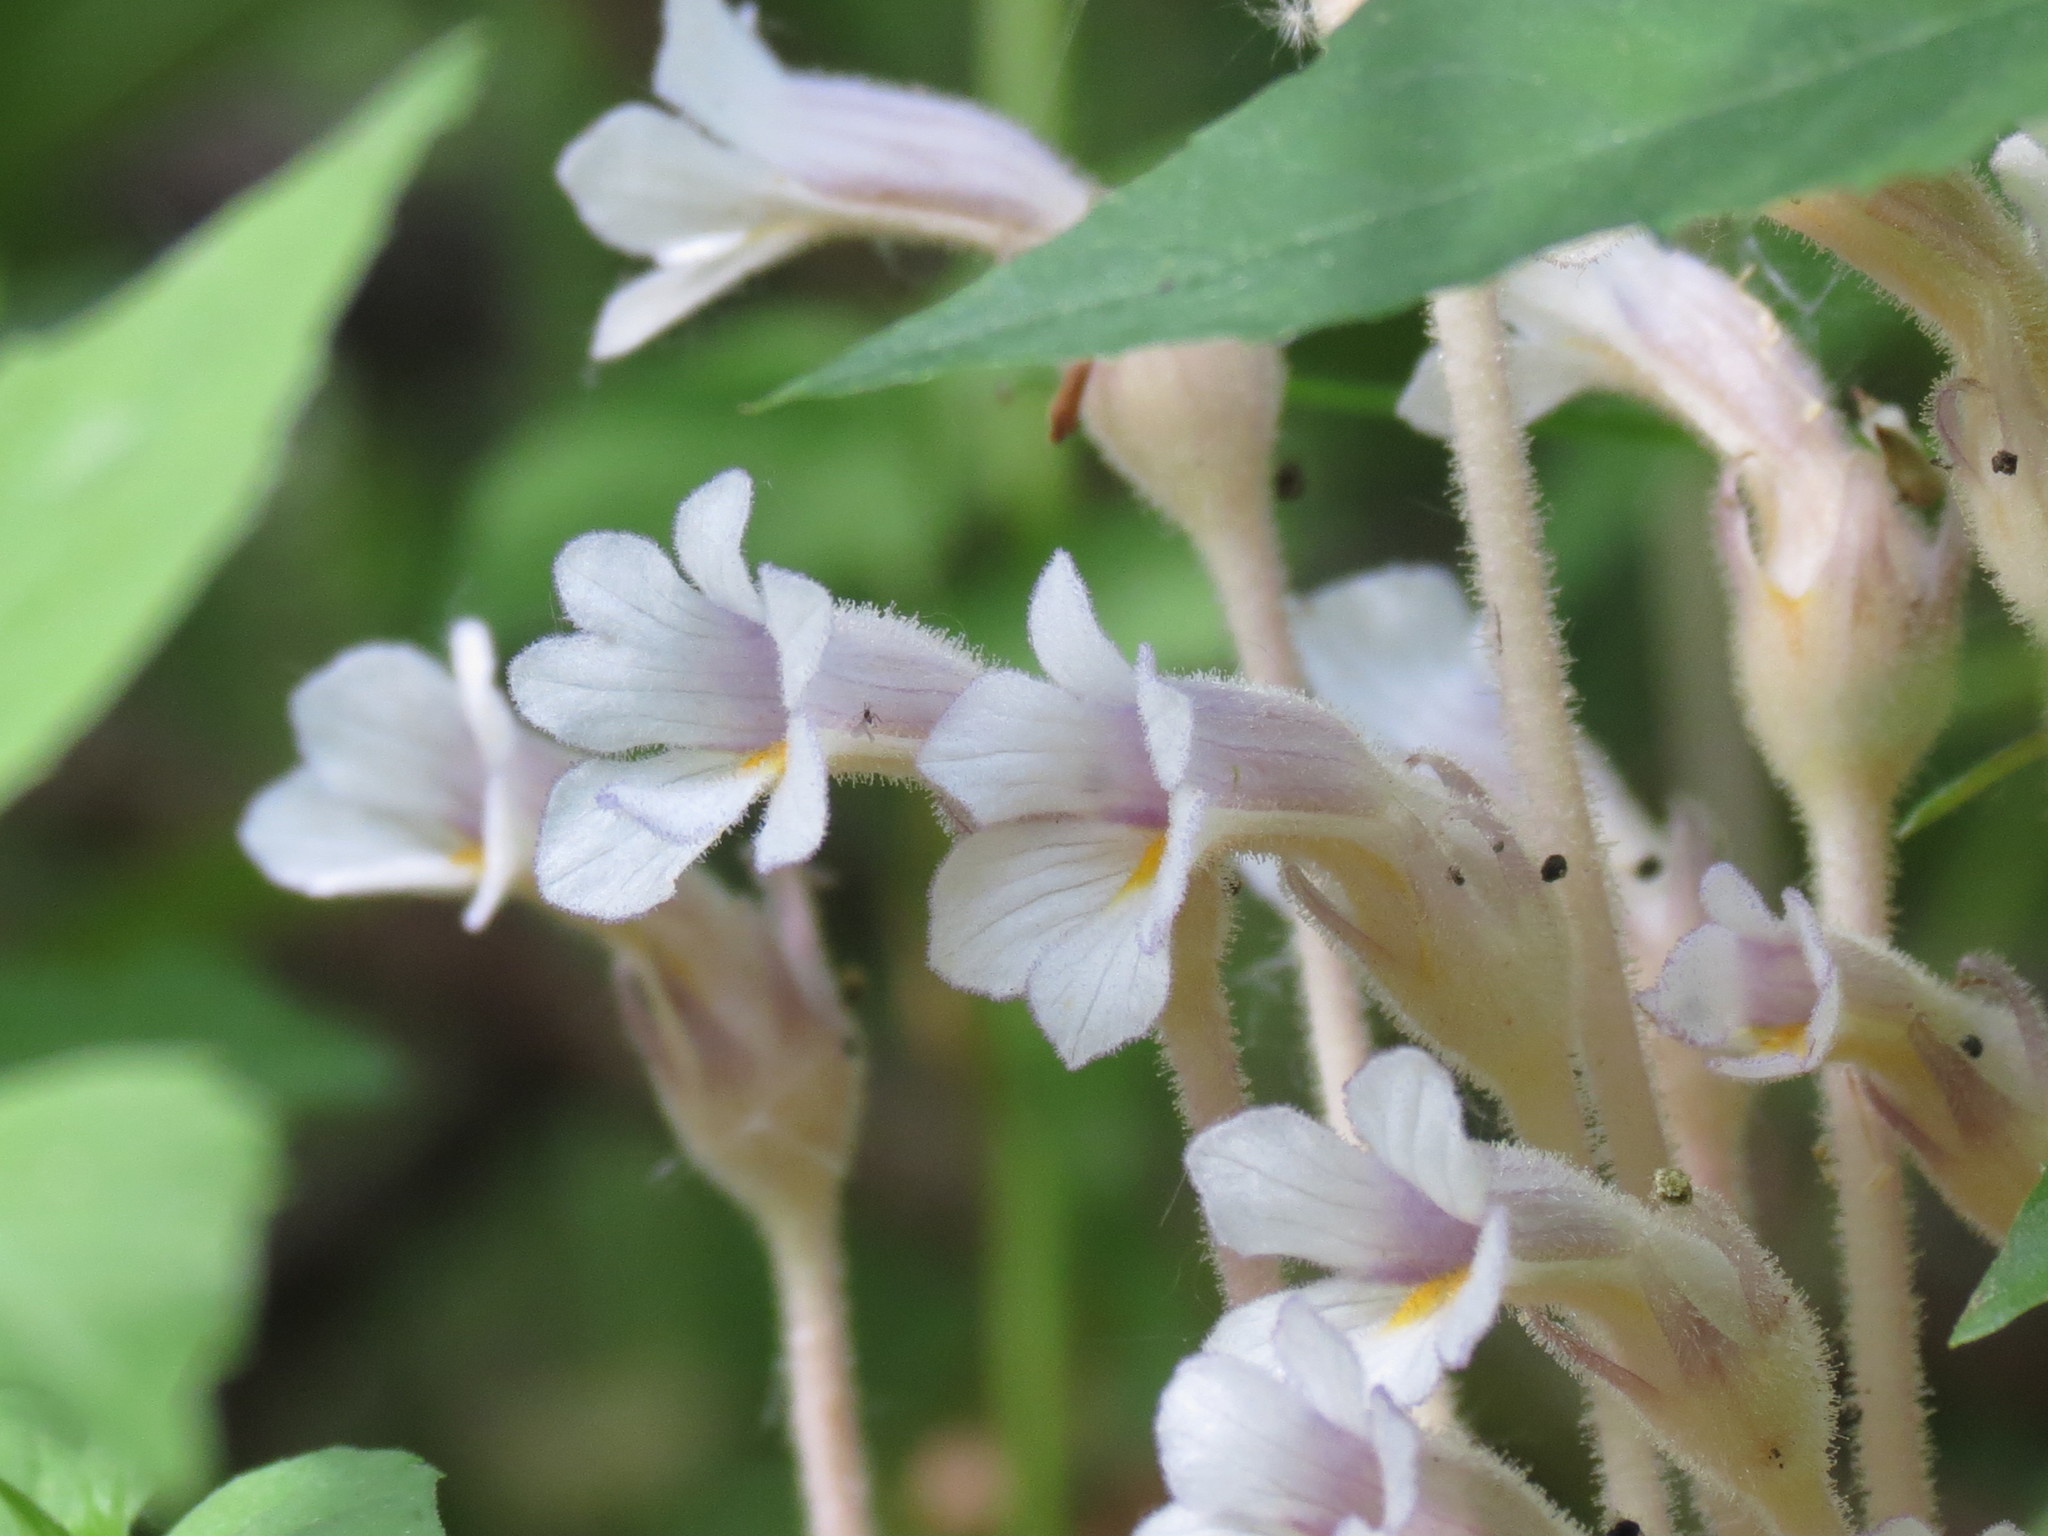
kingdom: Plantae
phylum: Tracheophyta
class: Magnoliopsida
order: Lamiales
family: Orobanchaceae
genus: Aphyllon
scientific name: Aphyllon uniflorum
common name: One-flowered broomrape
